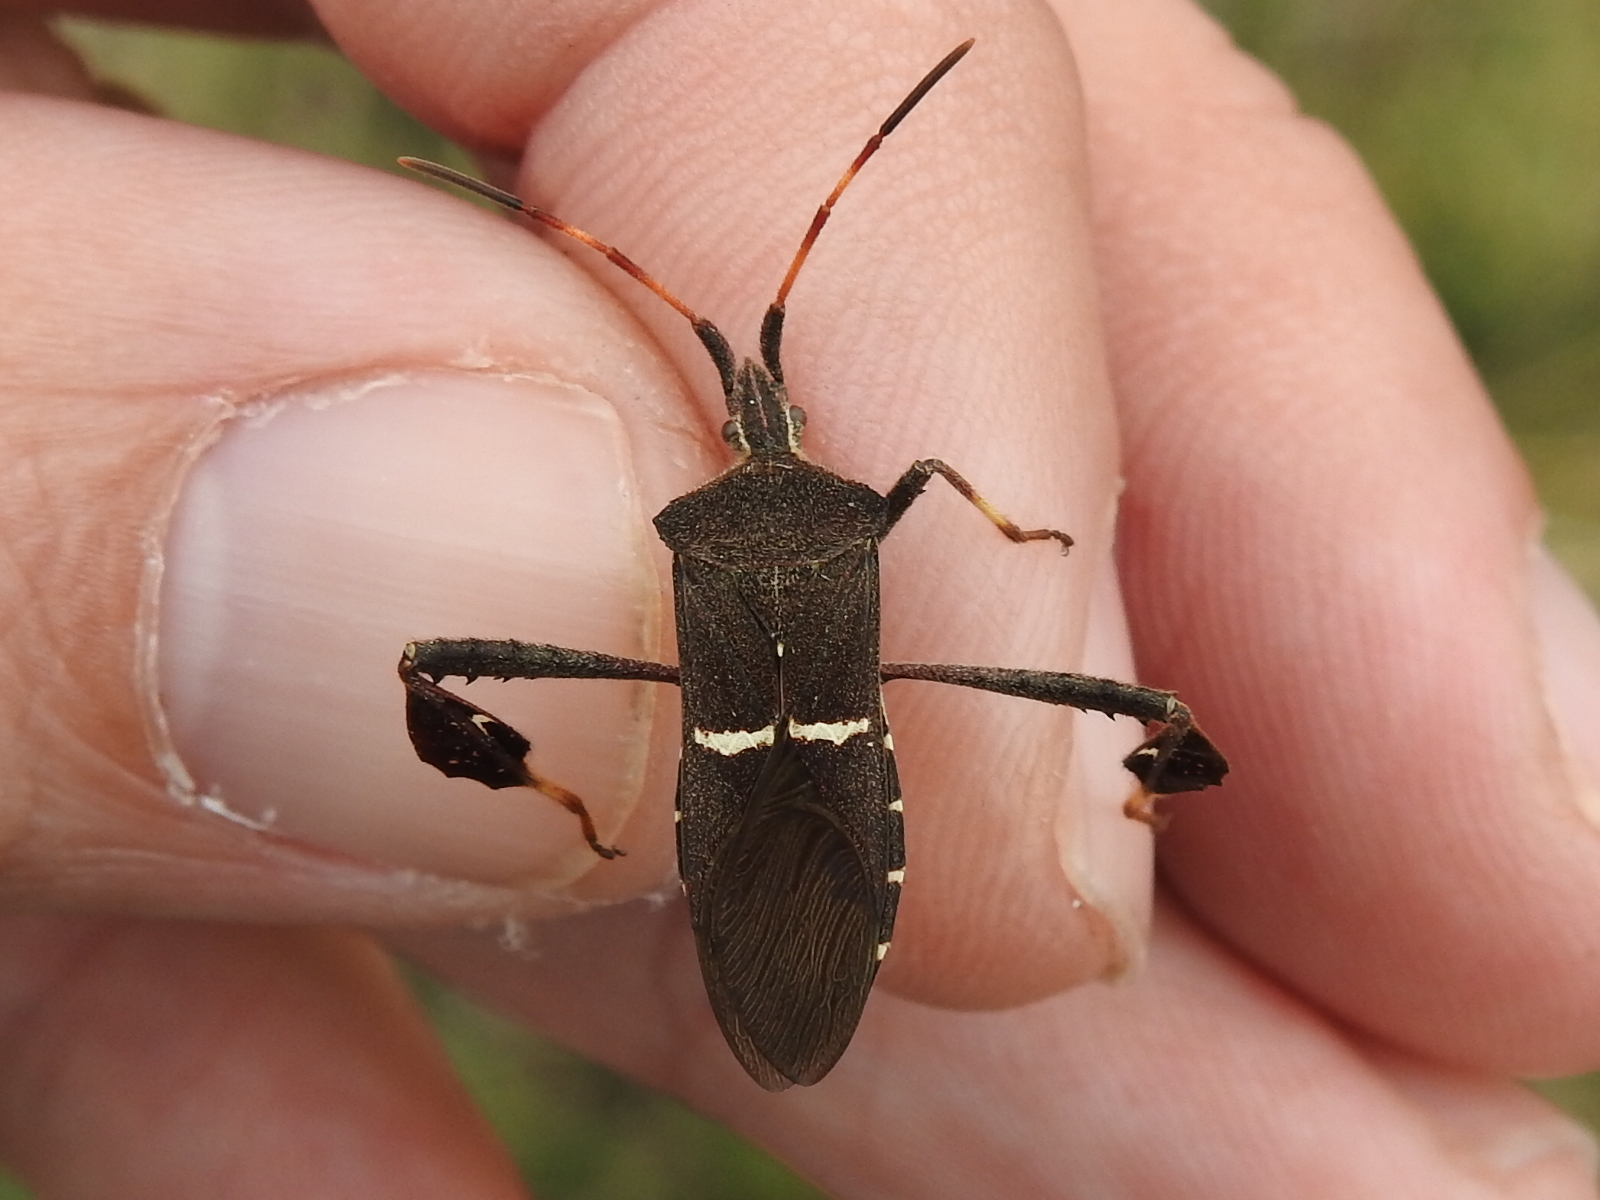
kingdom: Animalia
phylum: Arthropoda
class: Insecta
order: Hemiptera
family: Coreidae
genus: Leptoglossus
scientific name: Leptoglossus phyllopus
